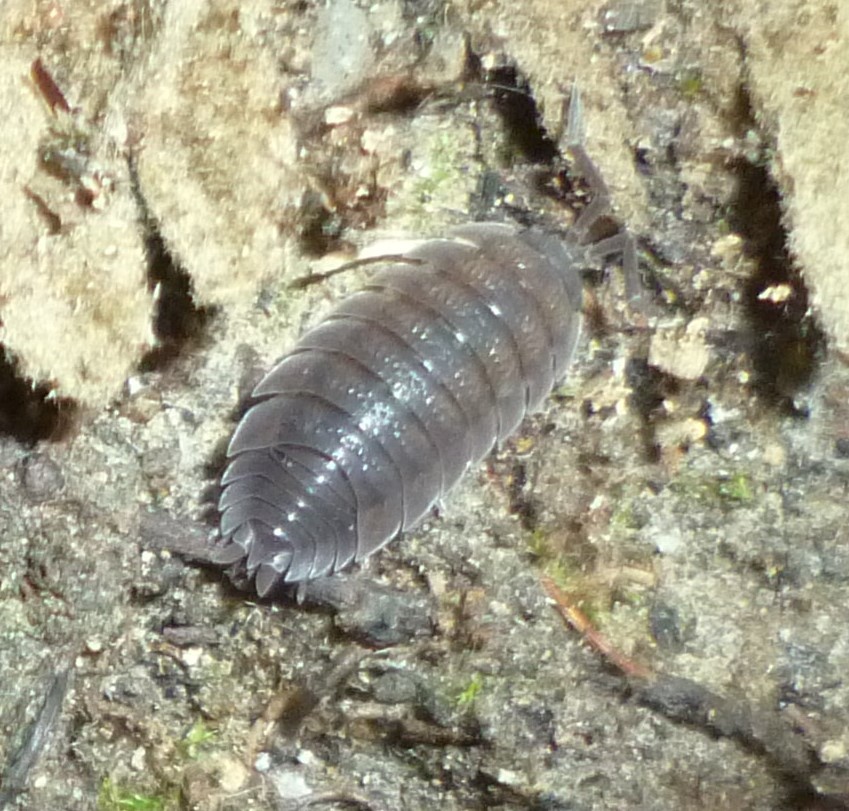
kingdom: Animalia
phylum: Arthropoda
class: Malacostraca
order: Isopoda
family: Porcellionidae
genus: Porcellio
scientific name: Porcellio scaber
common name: Common rough woodlouse
